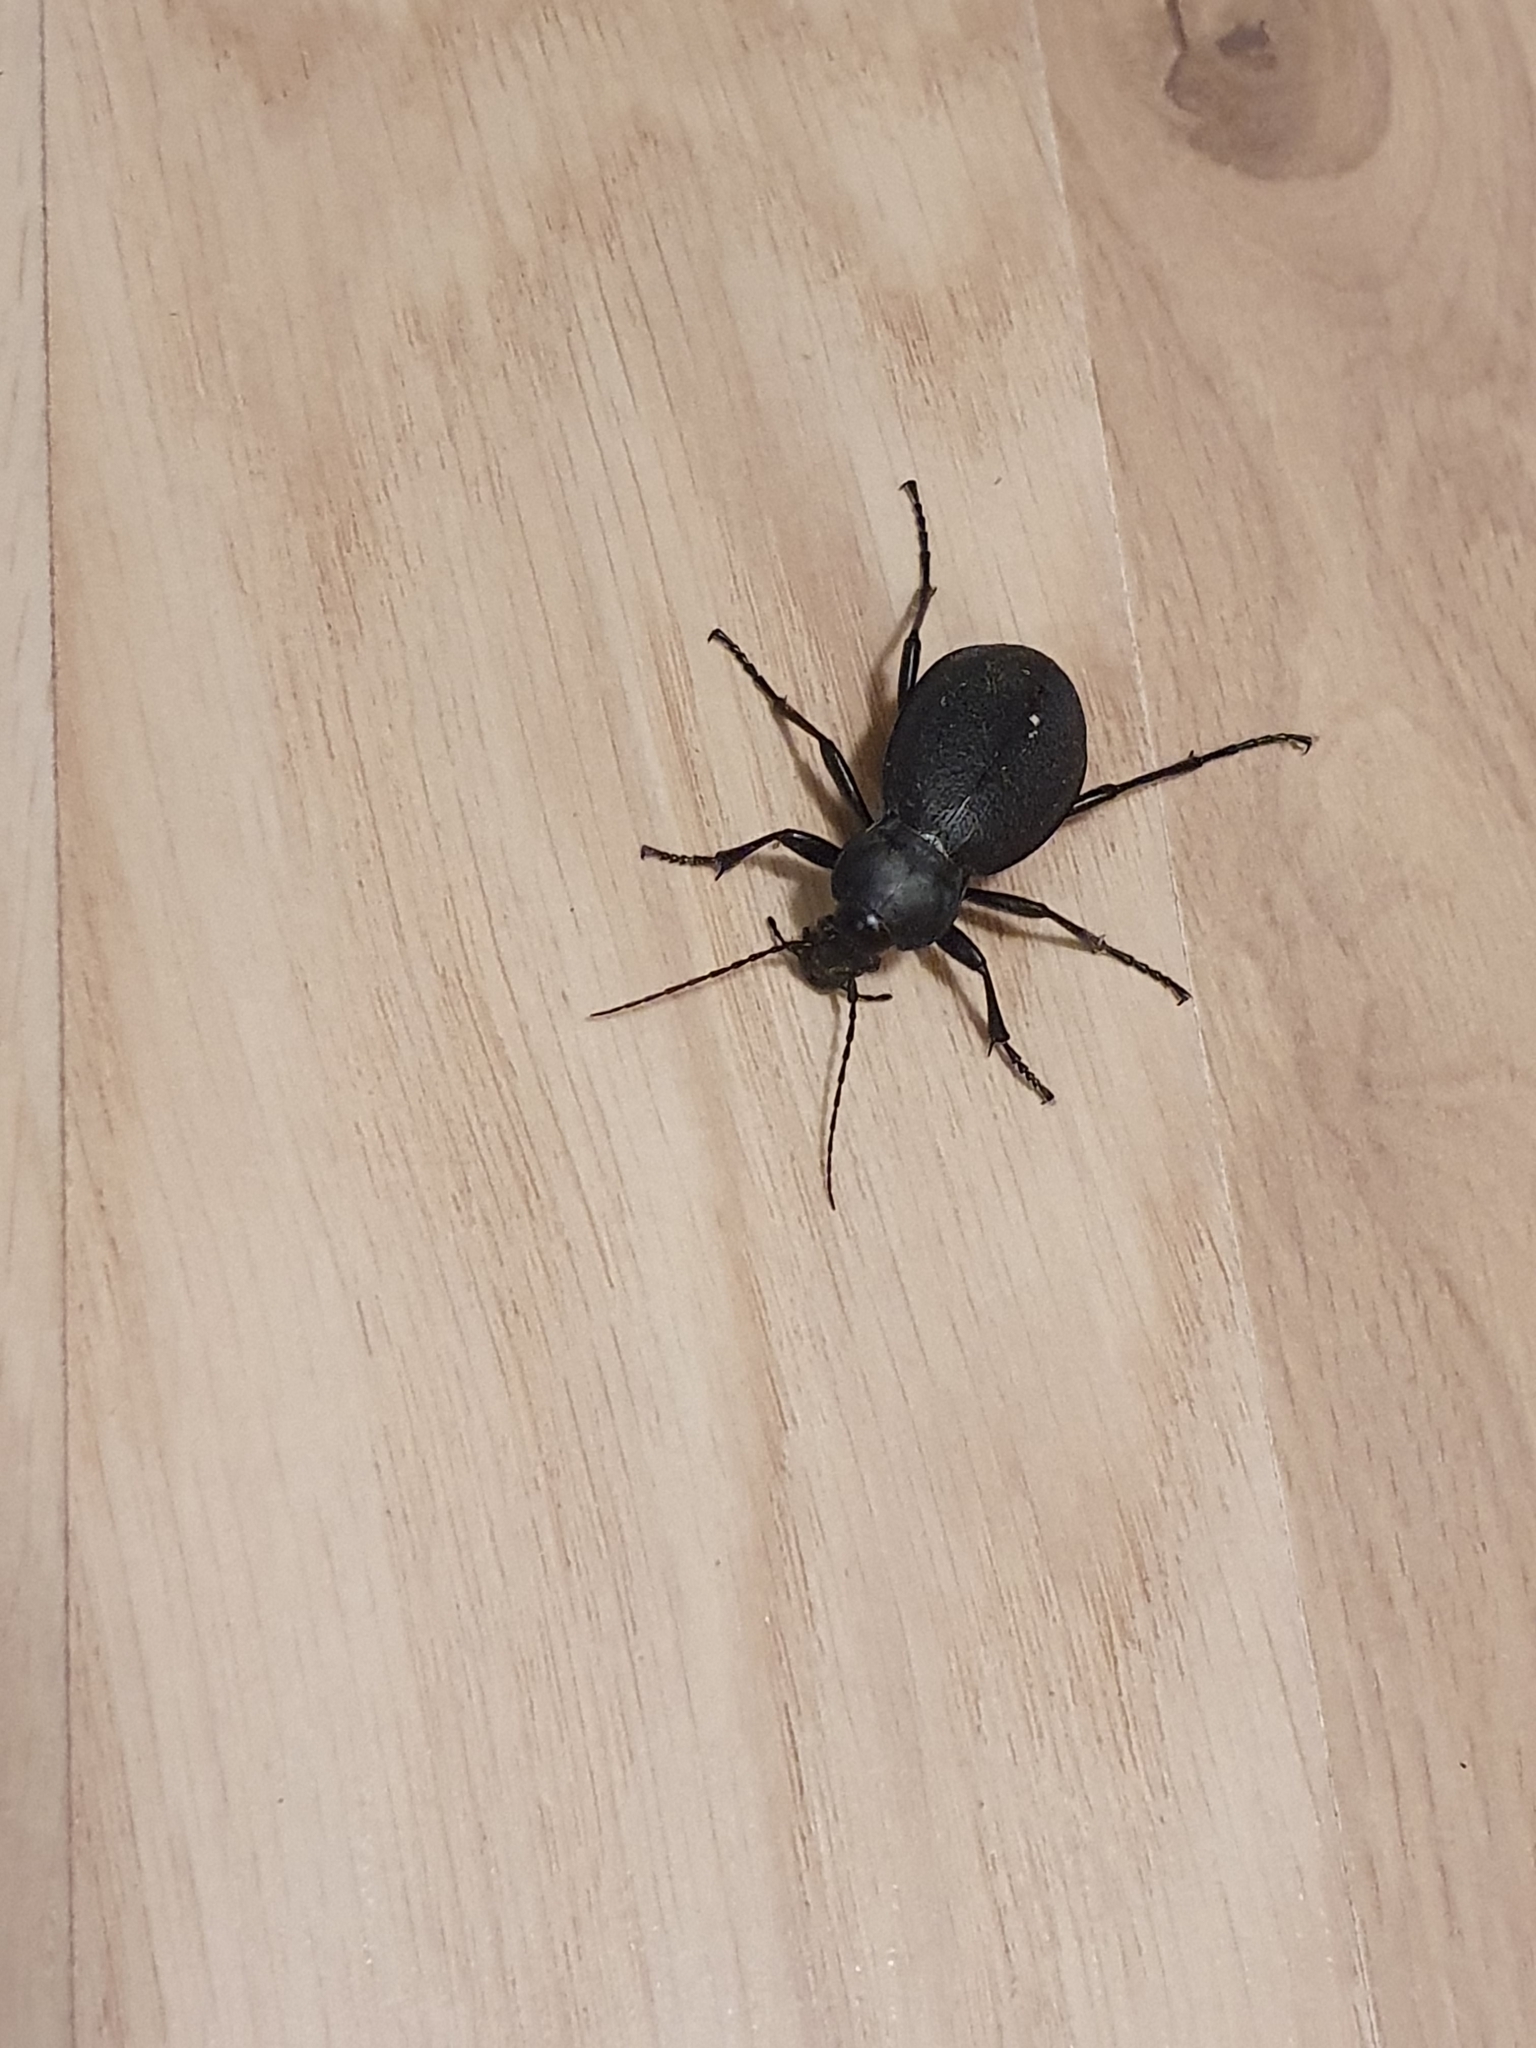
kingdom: Animalia
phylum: Arthropoda
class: Insecta
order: Coleoptera
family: Carabidae
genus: Carabus
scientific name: Carabus coriaceus
